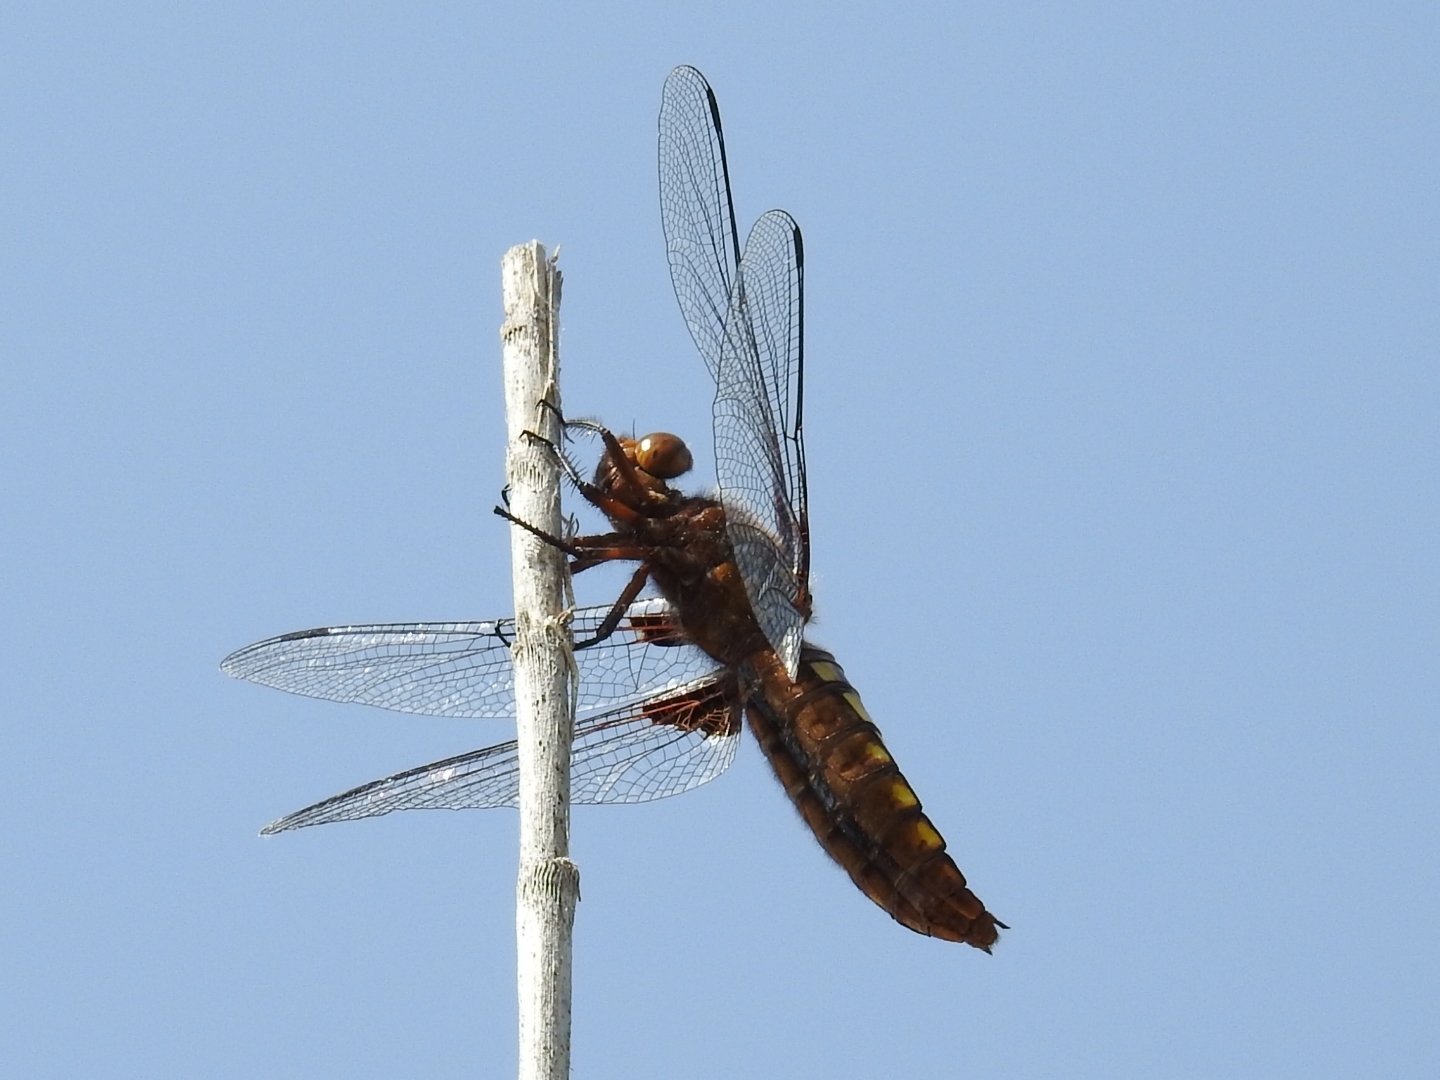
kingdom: Animalia
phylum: Arthropoda
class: Insecta
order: Odonata
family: Libellulidae
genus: Libellula
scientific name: Libellula depressa
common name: Broad-bodied chaser
